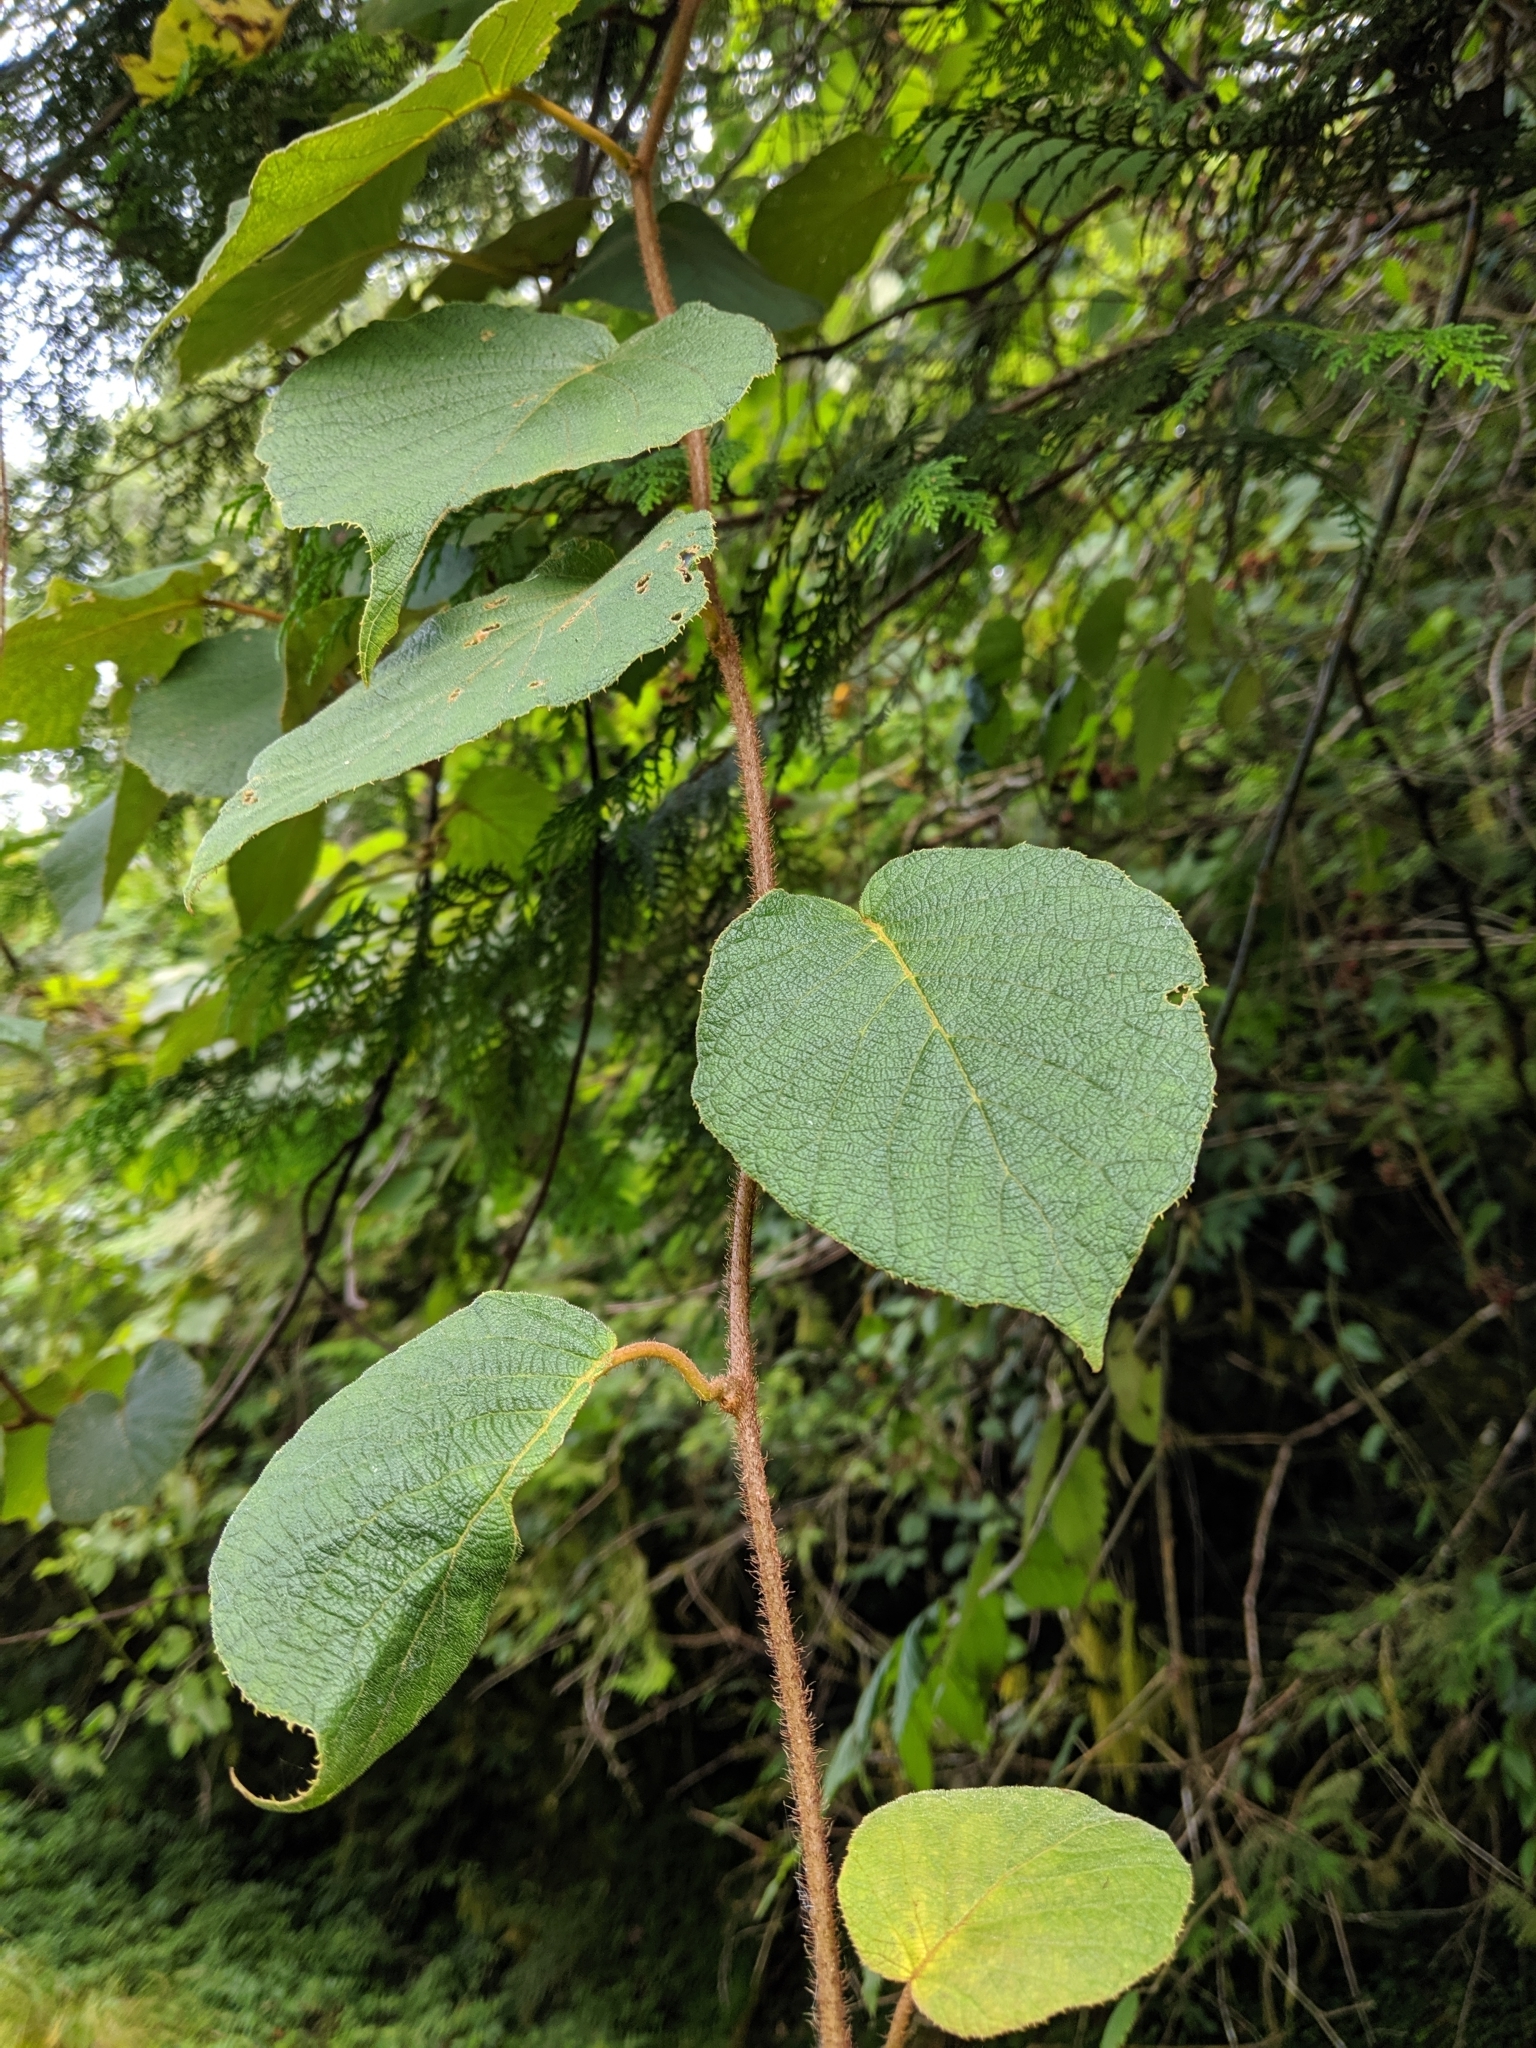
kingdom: Plantae
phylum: Tracheophyta
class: Magnoliopsida
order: Ericales
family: Actinidiaceae
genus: Actinidia
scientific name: Actinidia chinensis
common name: Kiwi
